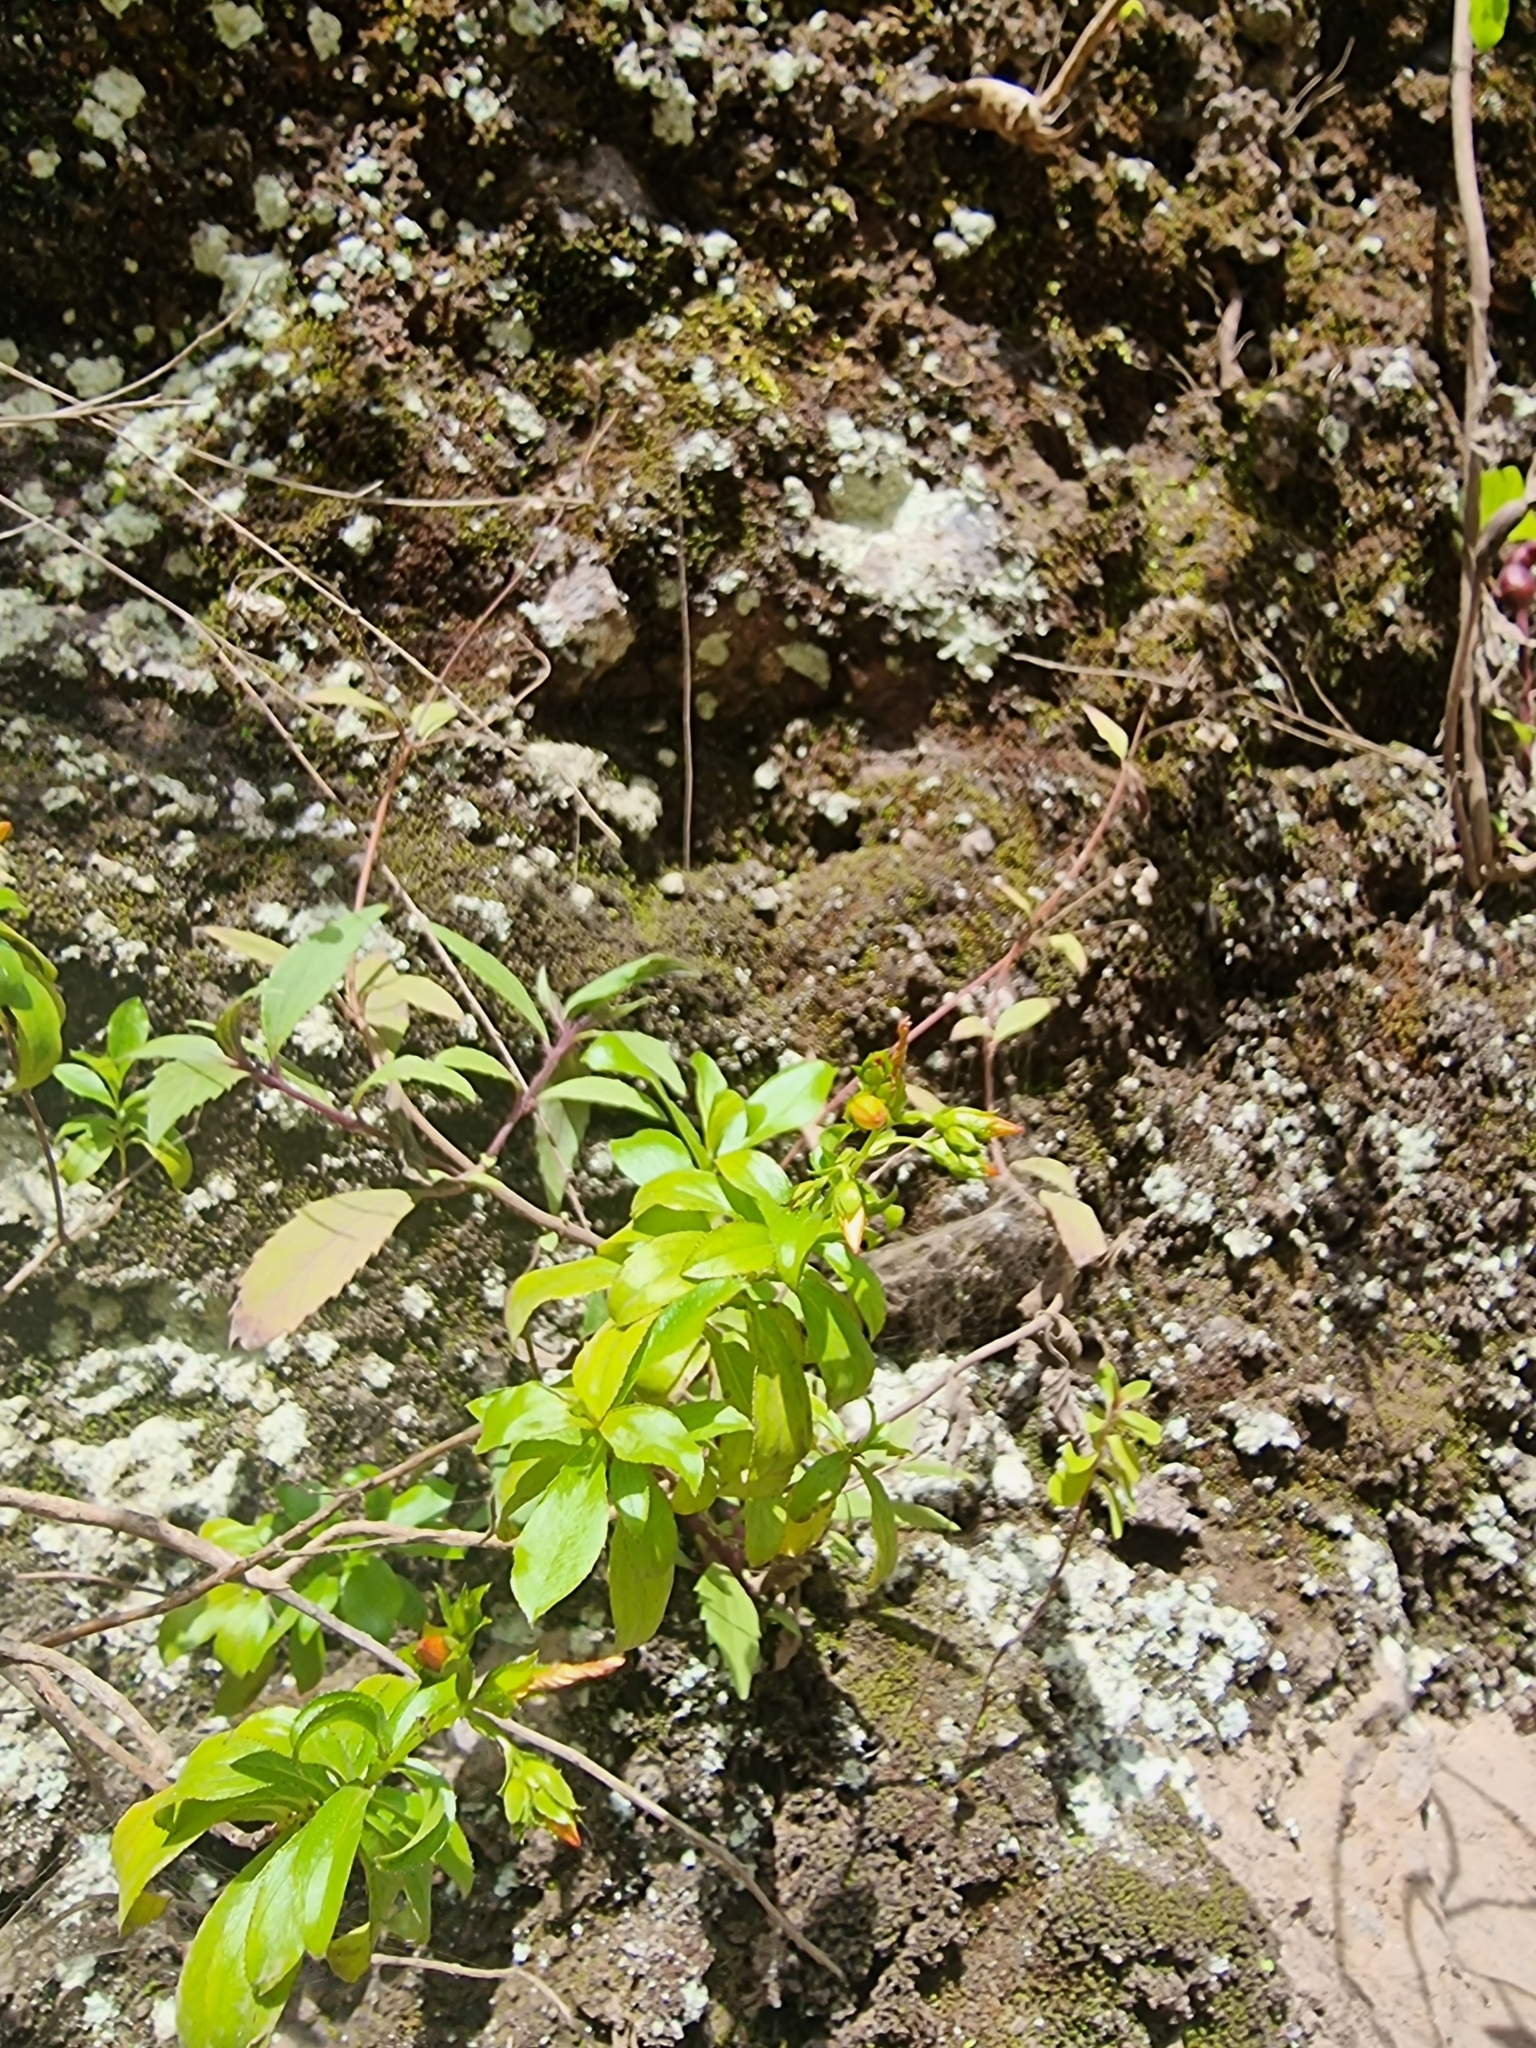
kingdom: Plantae
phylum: Tracheophyta
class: Magnoliopsida
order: Malpighiales
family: Hypericaceae
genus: Hypericum
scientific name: Hypericum glandulosum
